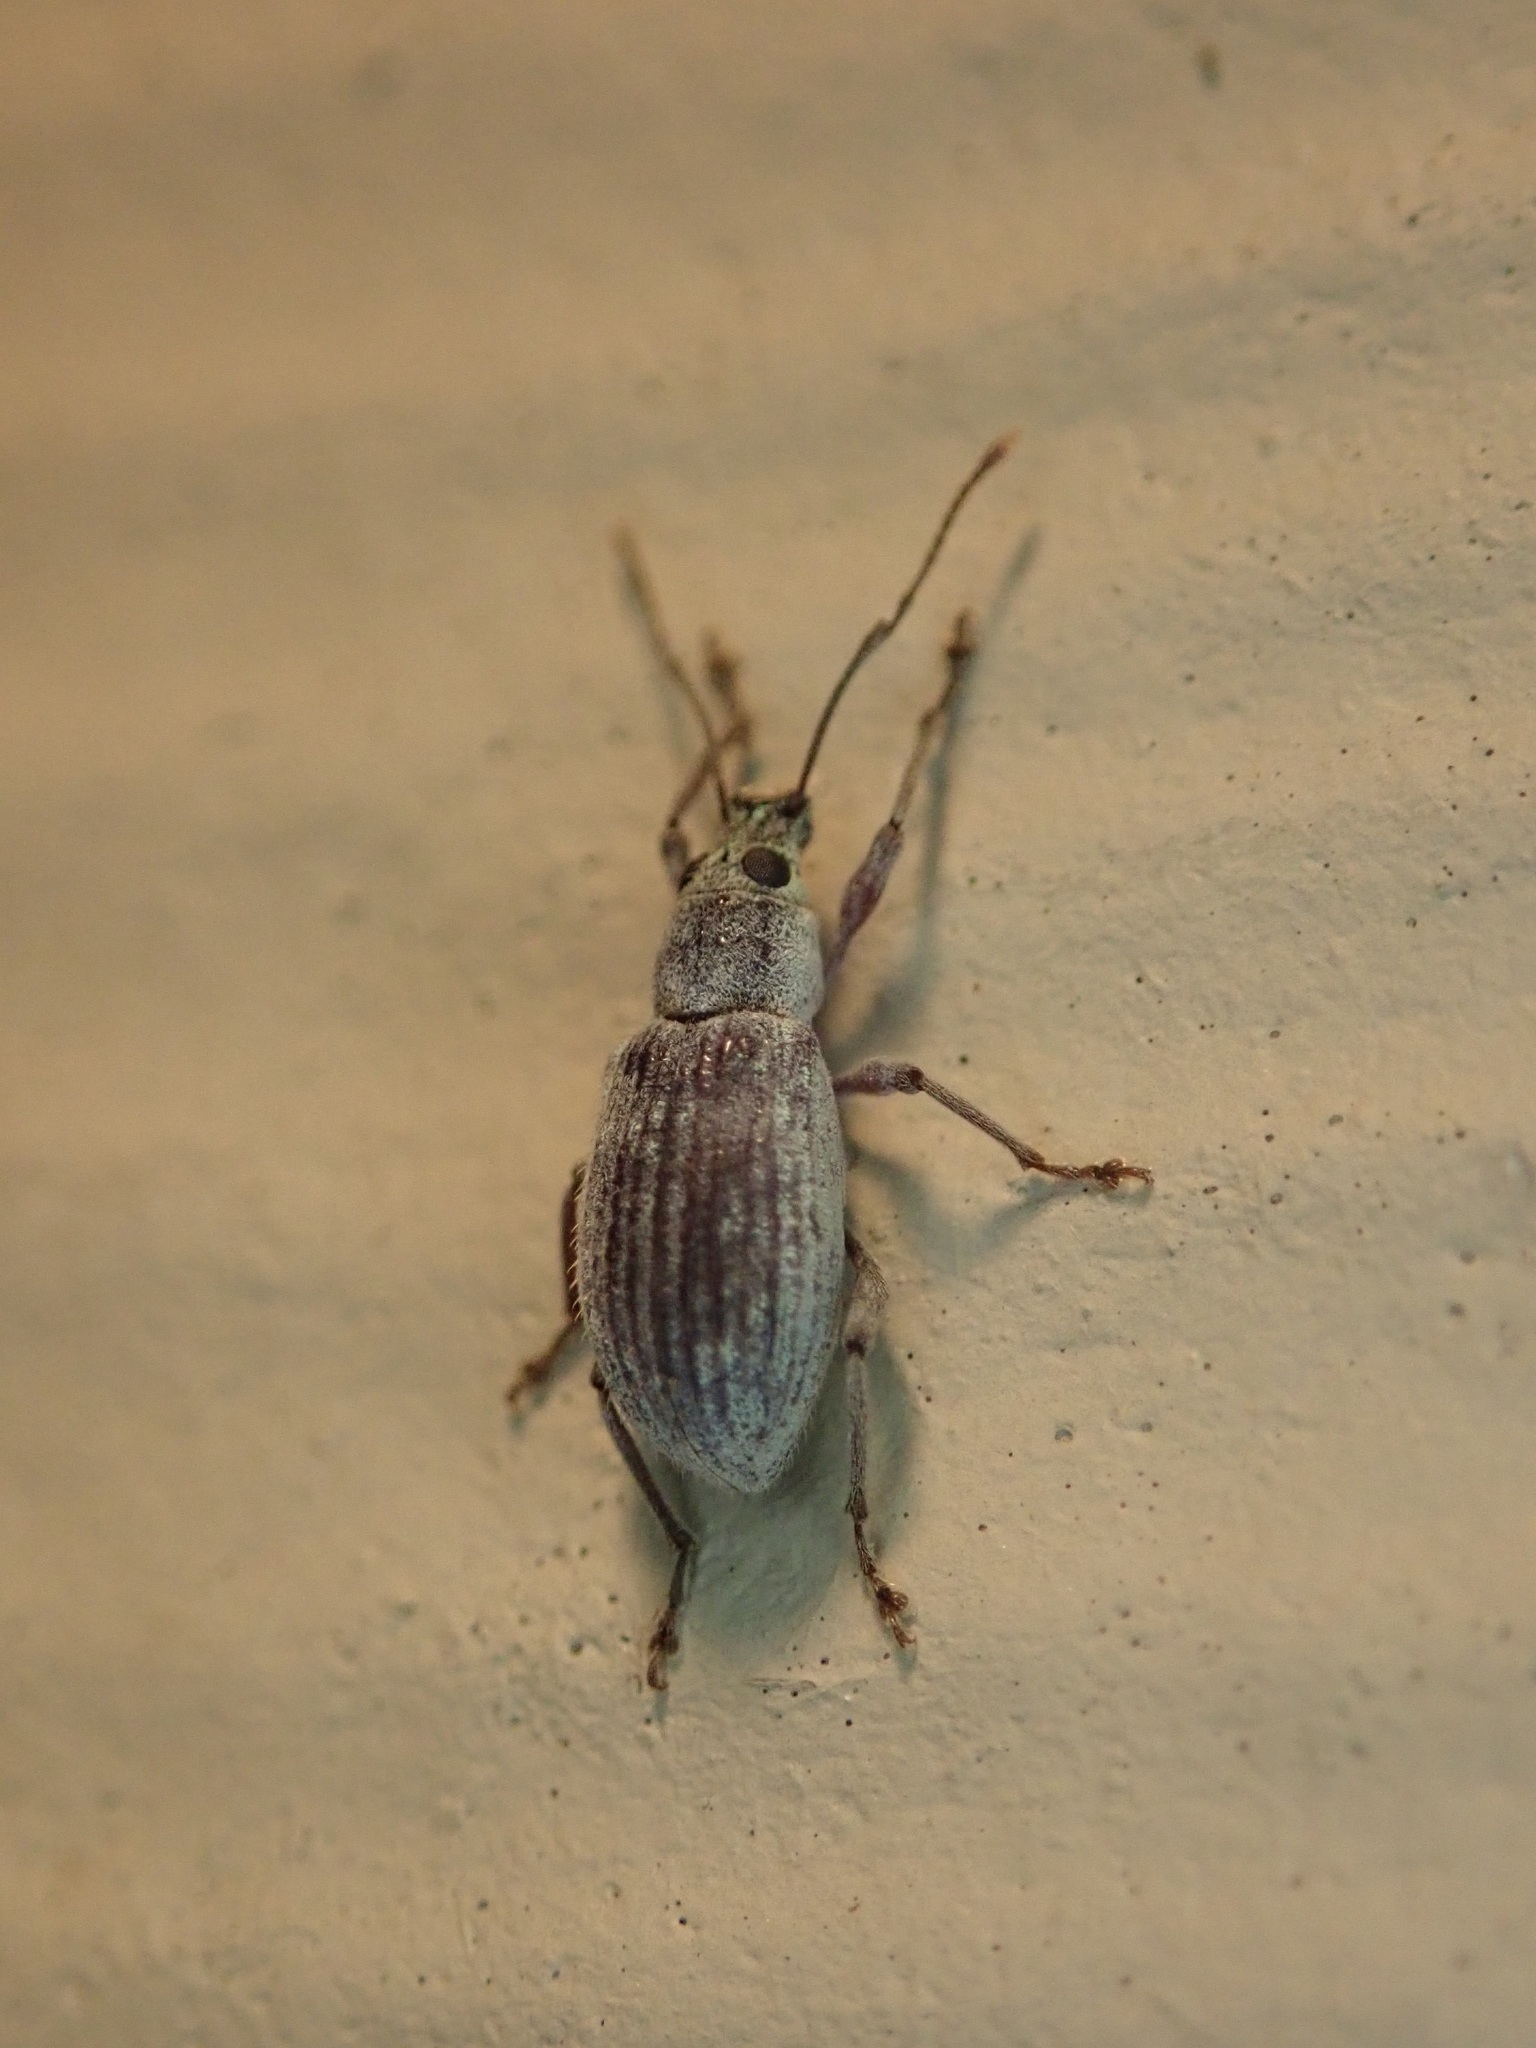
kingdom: Animalia
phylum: Arthropoda
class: Insecta
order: Coleoptera
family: Curculionidae
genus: Cyrtepistomus
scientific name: Cyrtepistomus castaneus
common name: Weevil
